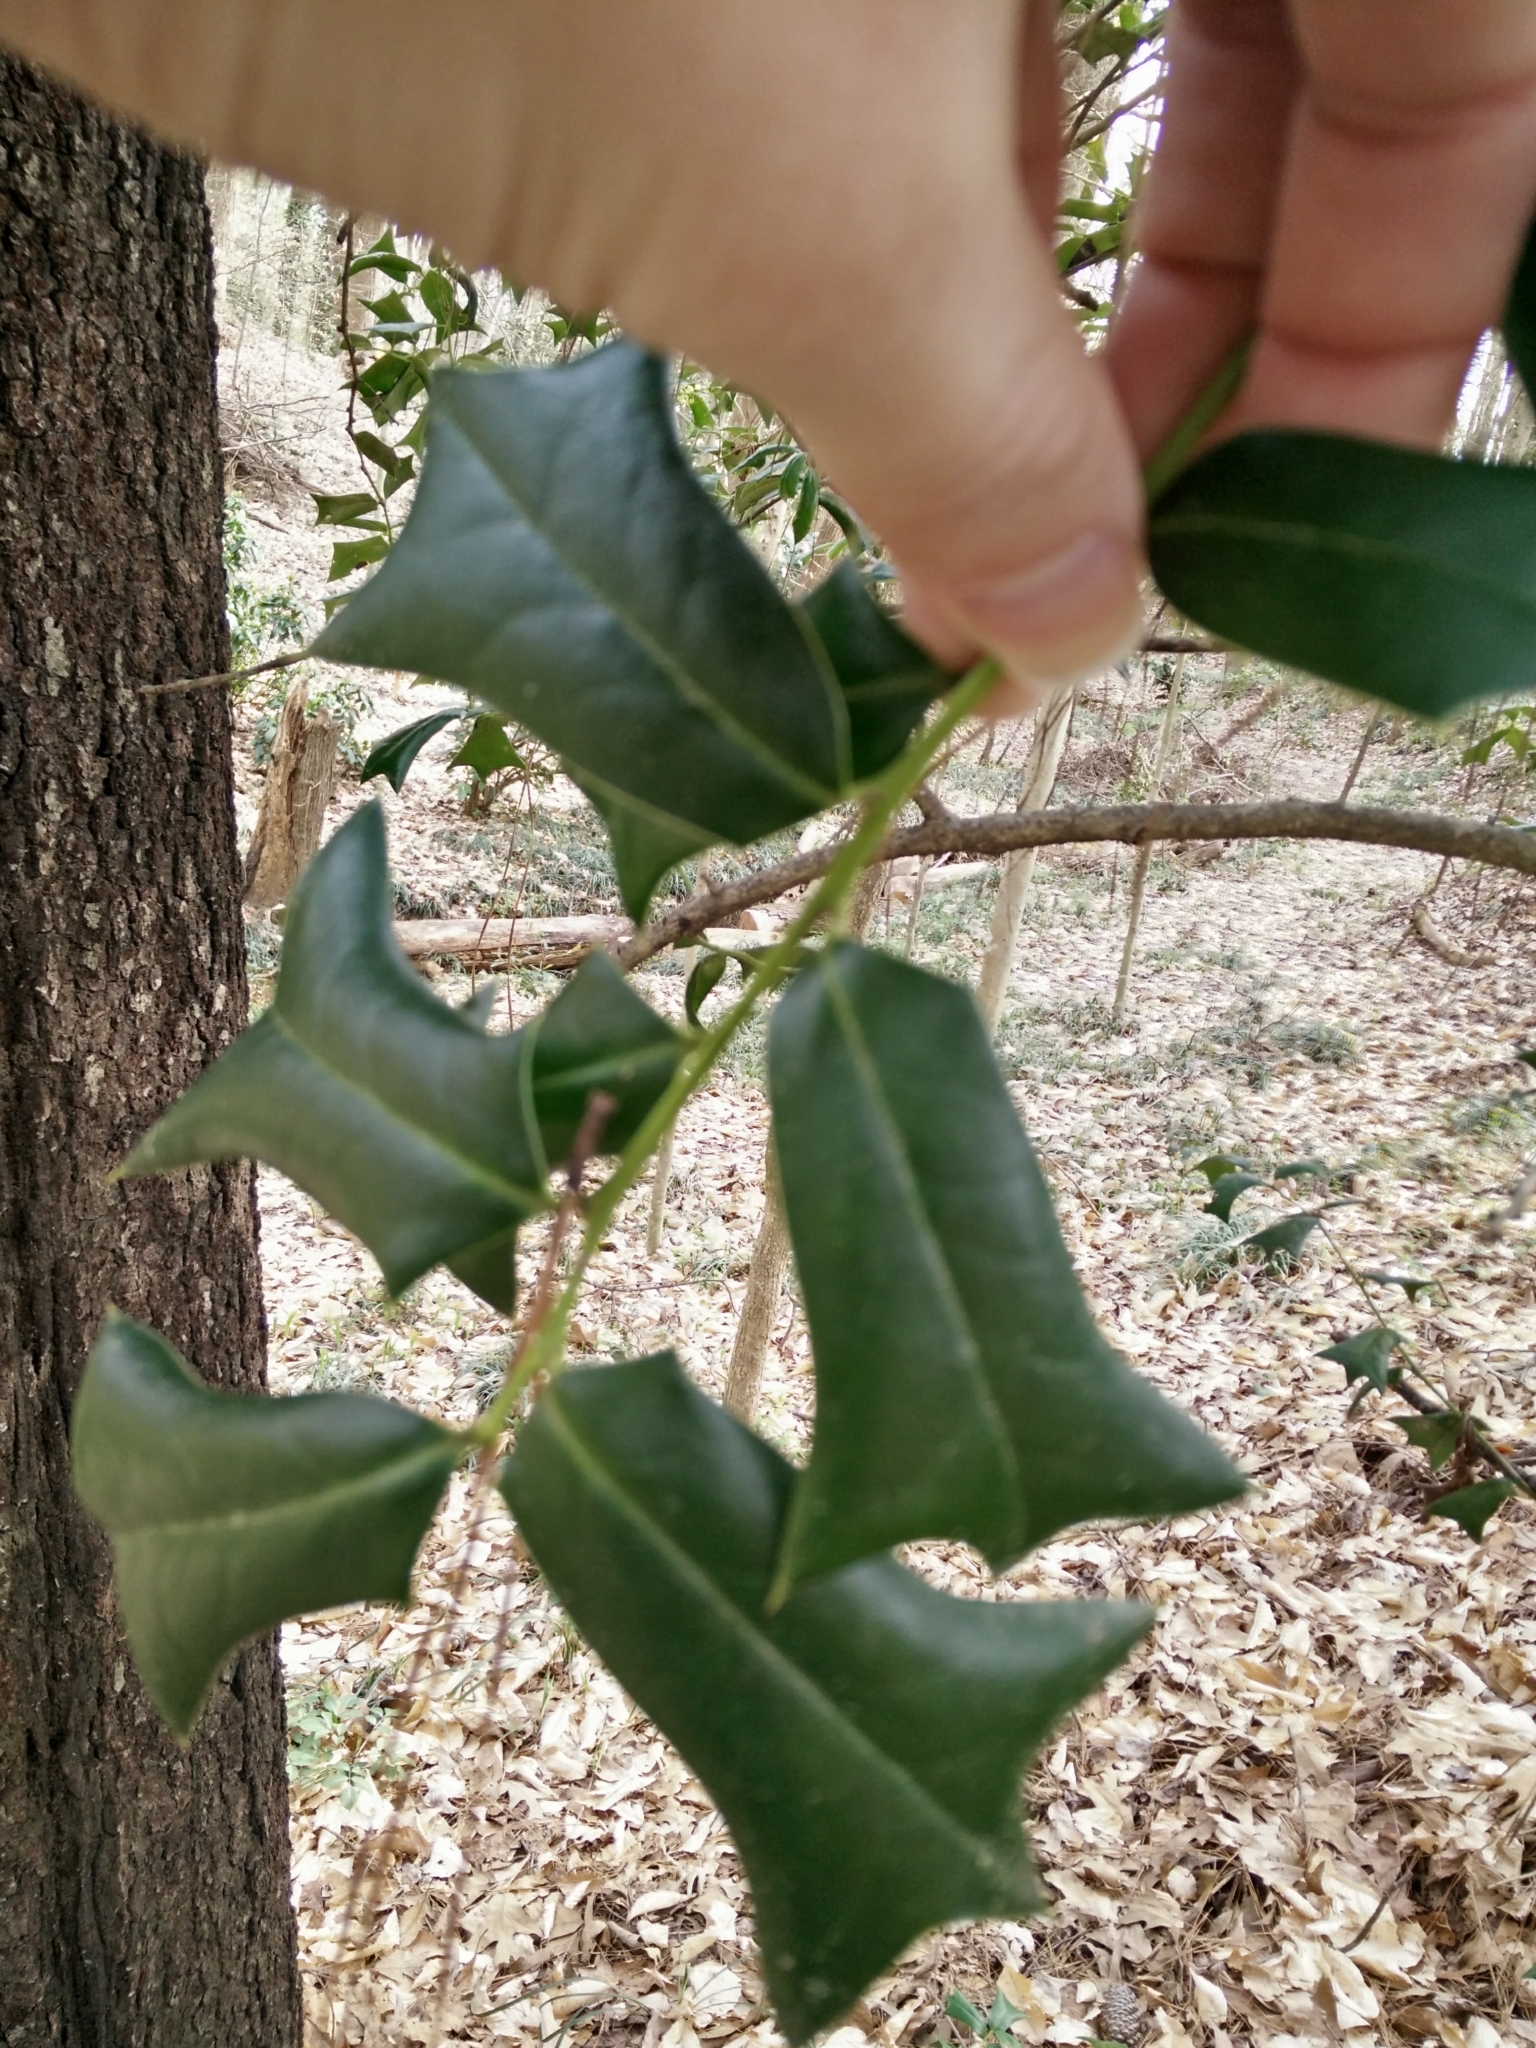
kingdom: Plantae
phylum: Tracheophyta
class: Magnoliopsida
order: Aquifoliales
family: Aquifoliaceae
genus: Ilex
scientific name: Ilex cornuta
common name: Chinese holly
